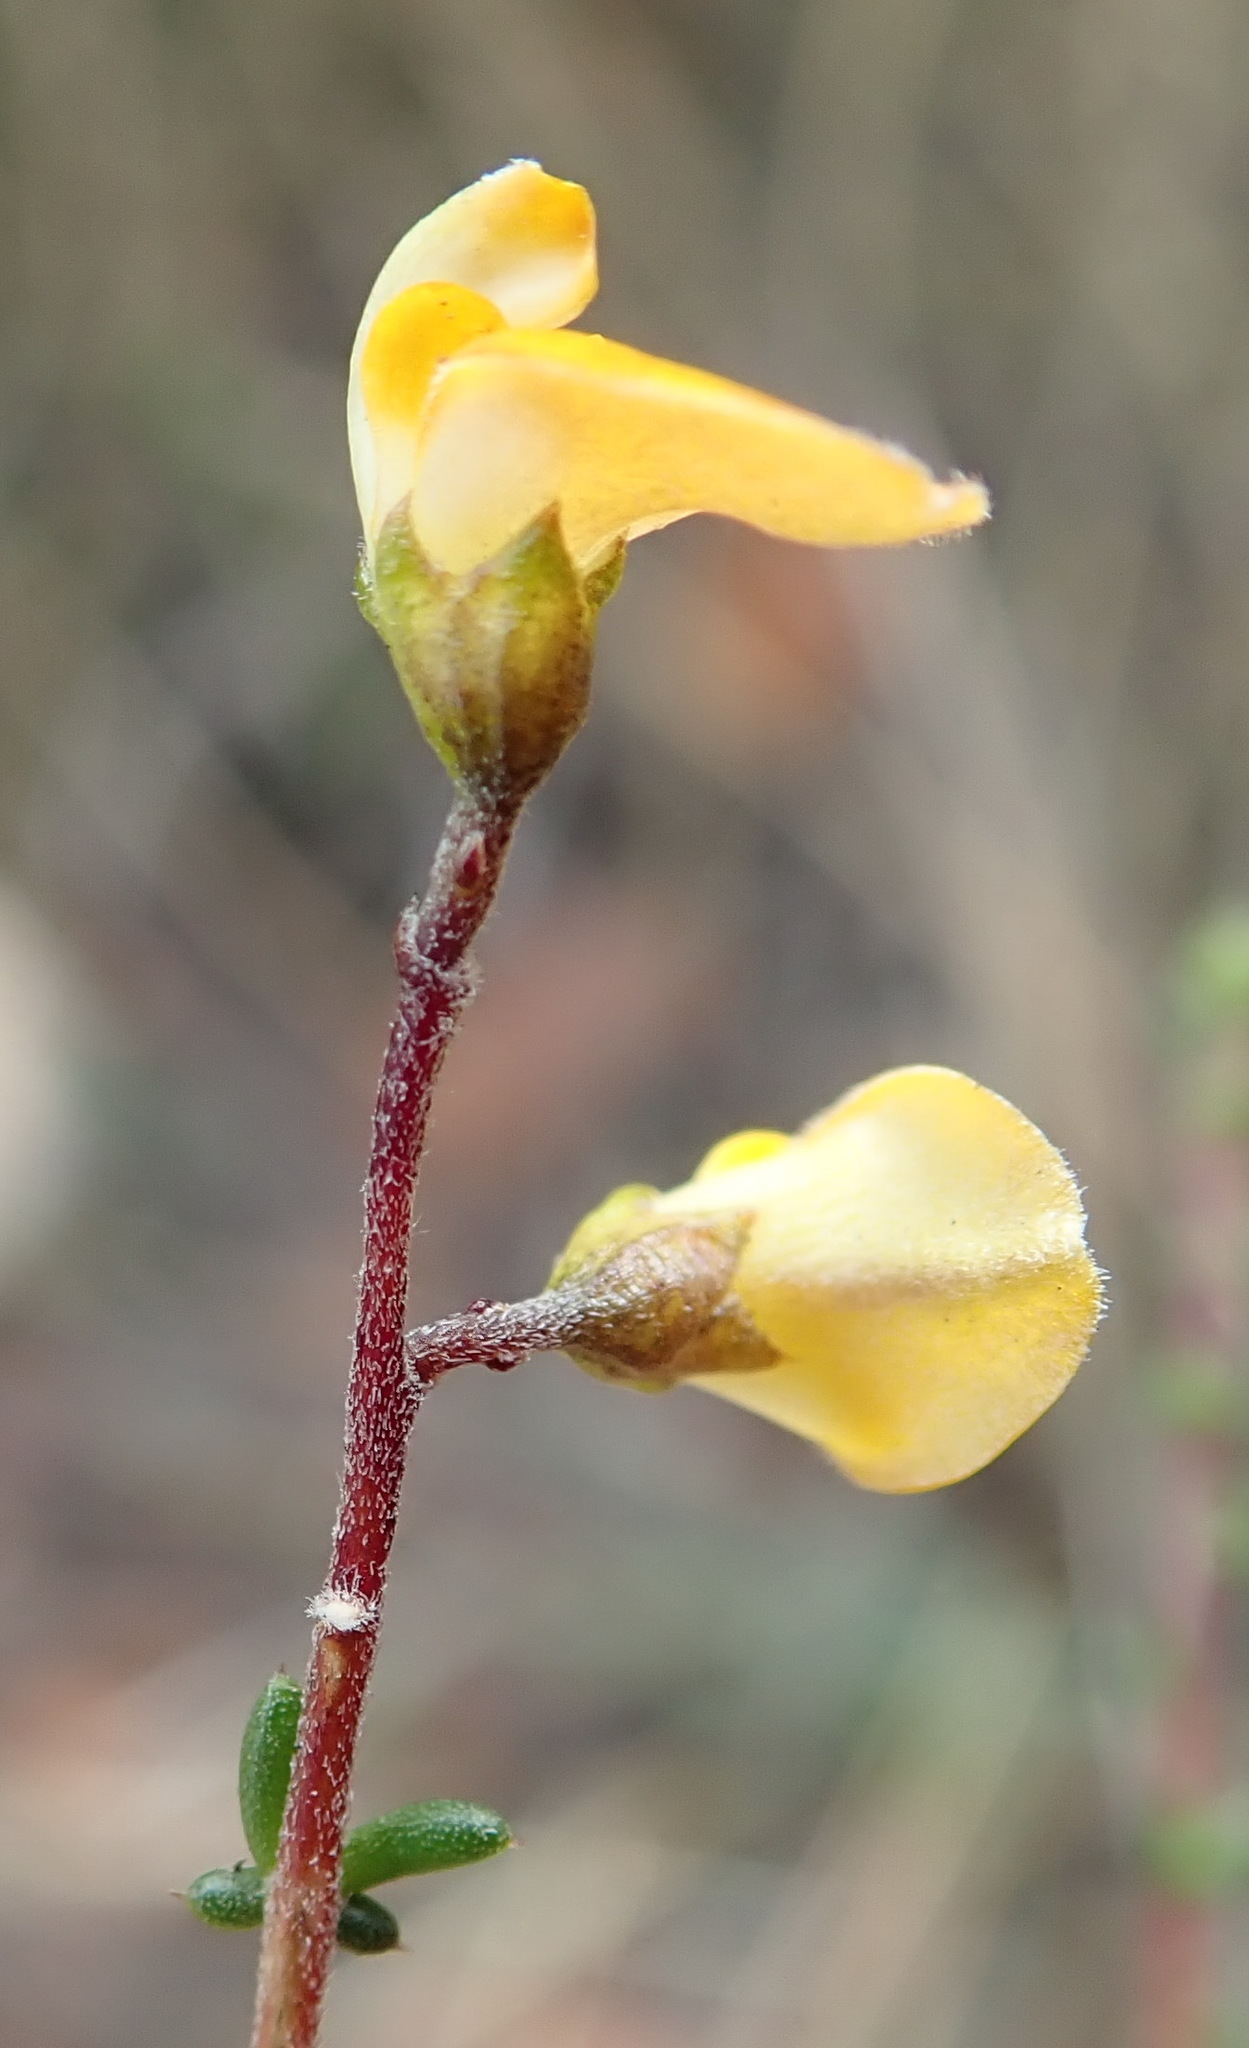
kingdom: Plantae
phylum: Tracheophyta
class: Magnoliopsida
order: Fabales
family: Fabaceae
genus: Aspalathus
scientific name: Aspalathus biflora
